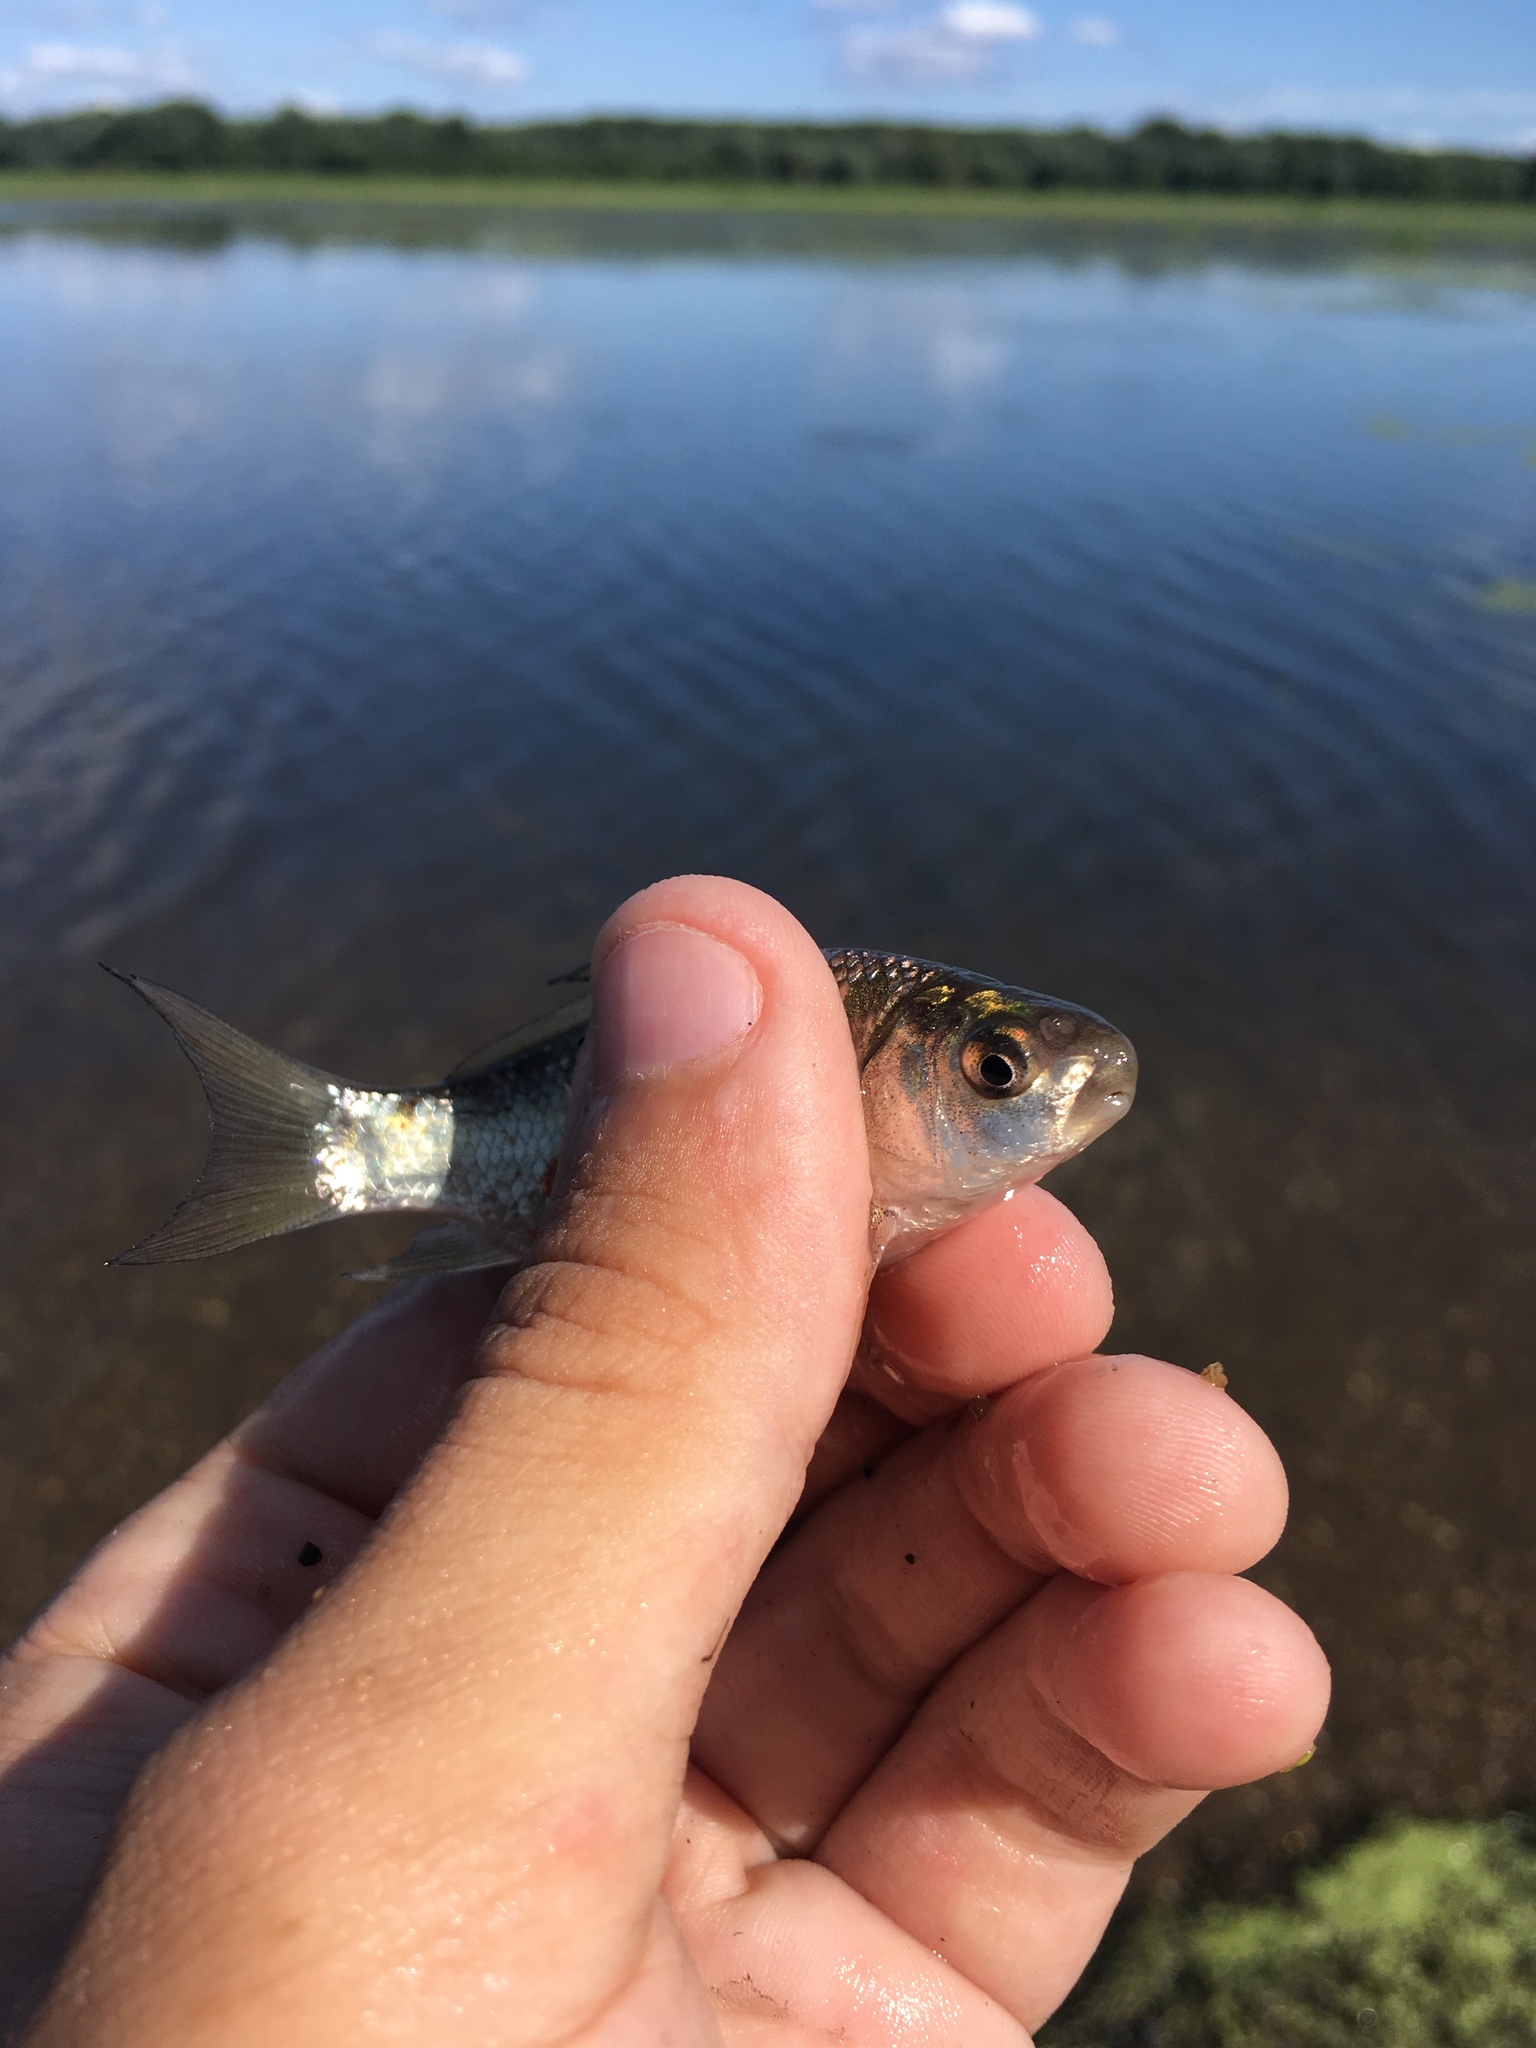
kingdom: Animalia
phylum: Chordata
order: Cypriniformes
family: Catostomidae
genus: Ictiobus
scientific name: Ictiobus bubalus
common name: Smallmouth buffalo
